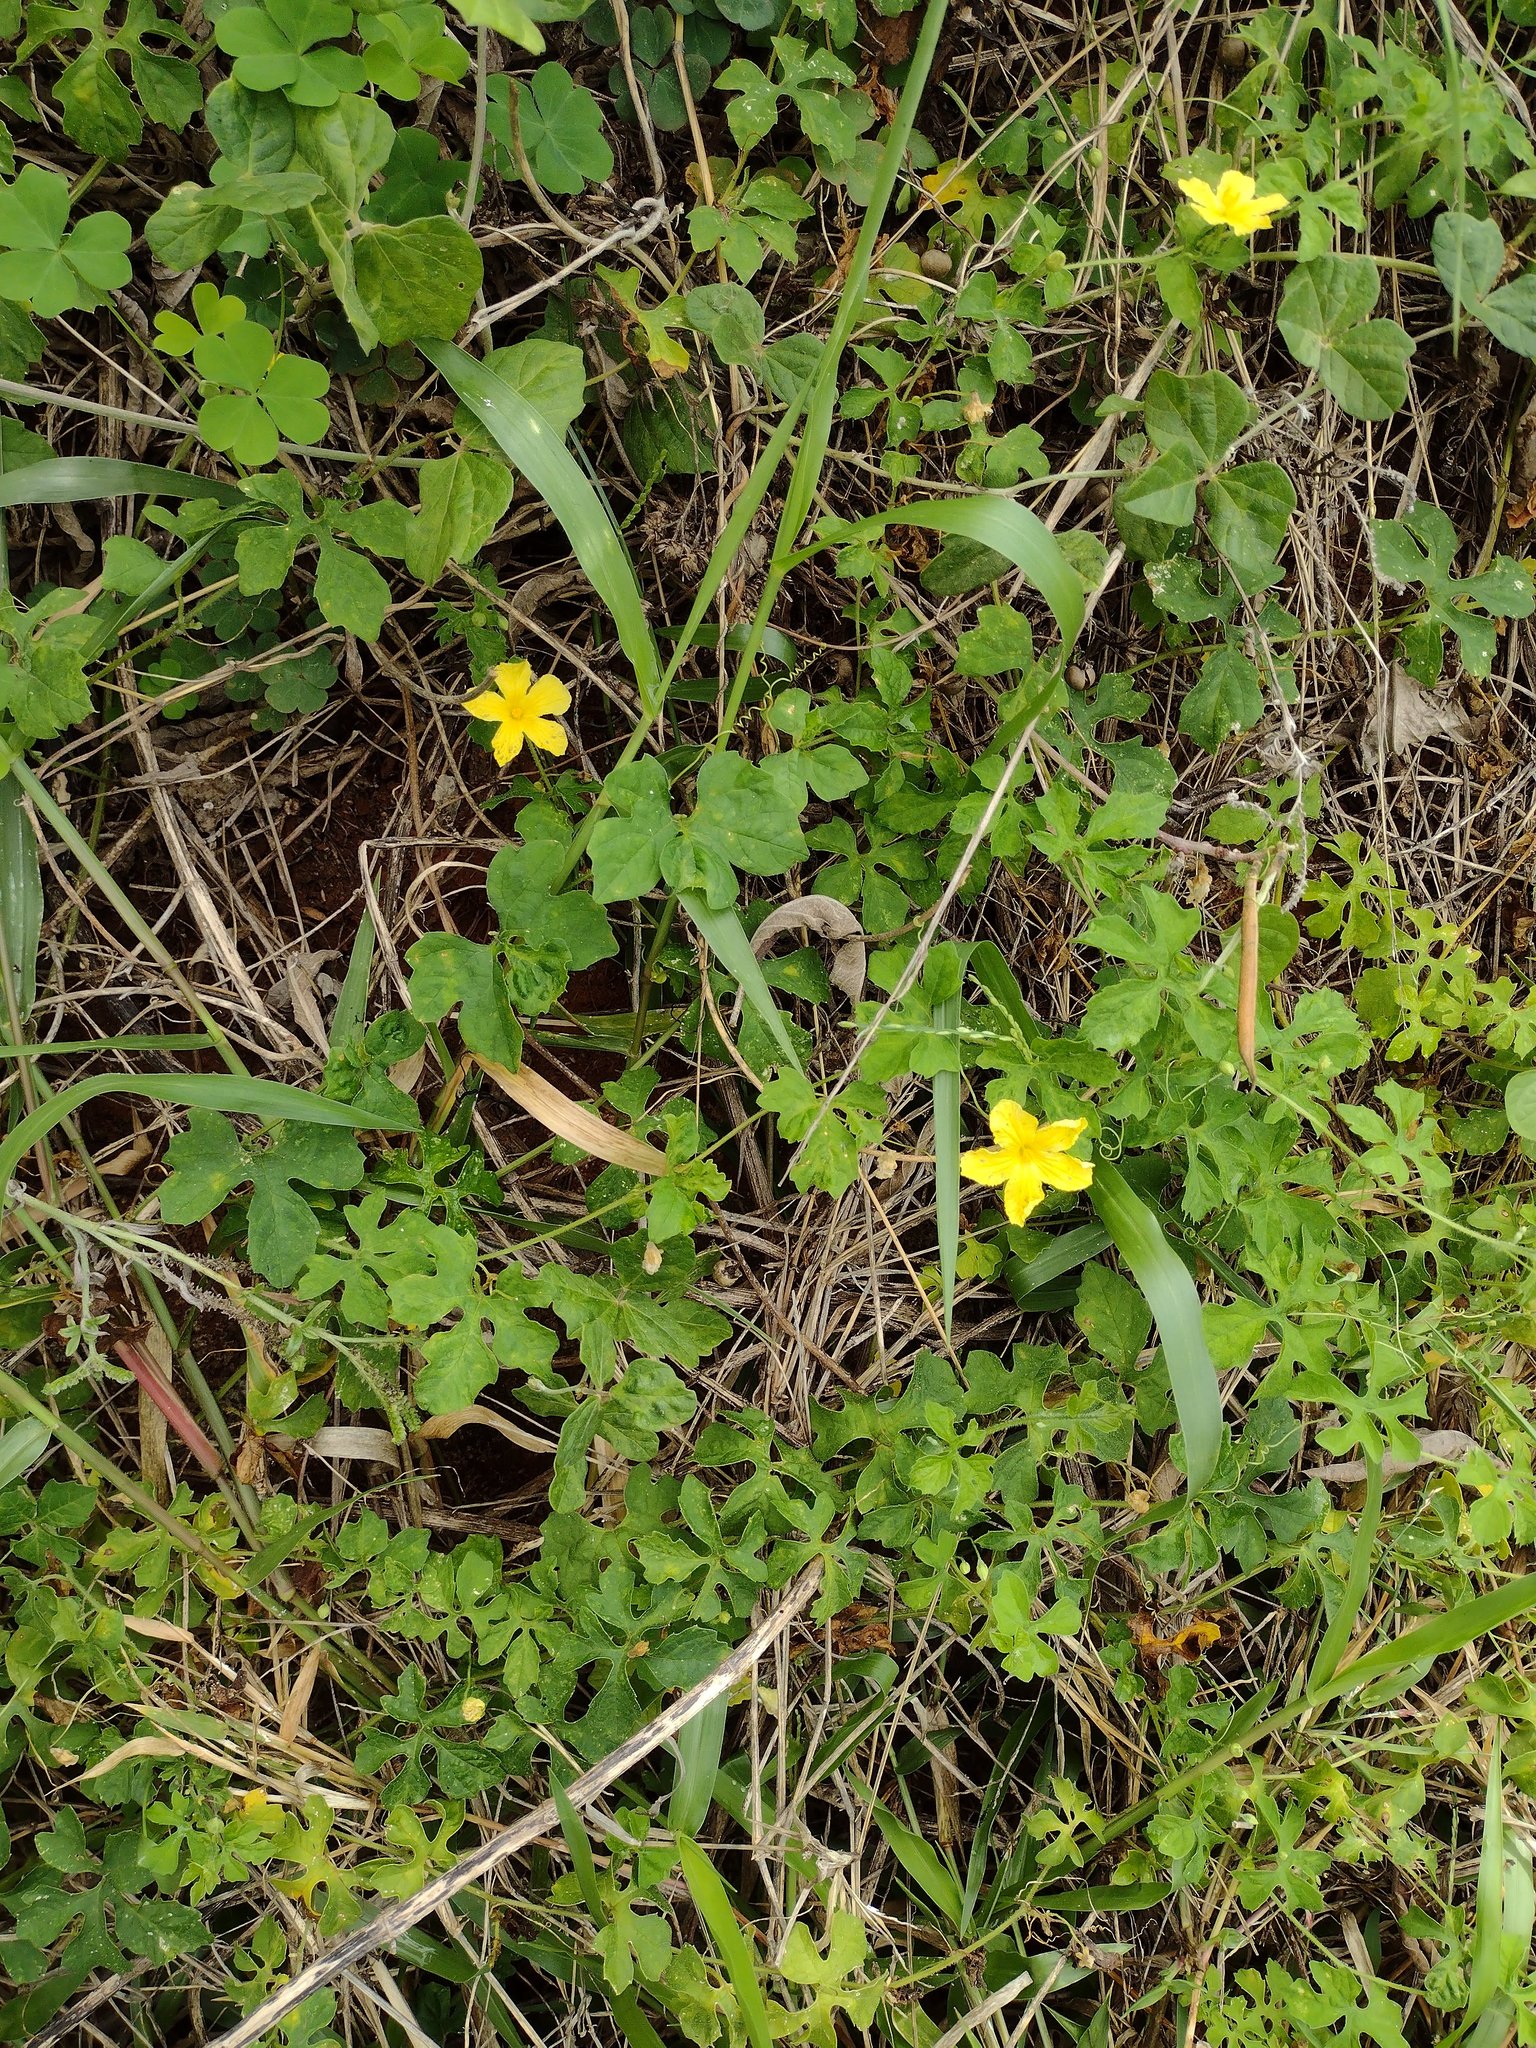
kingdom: Plantae
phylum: Tracheophyta
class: Magnoliopsida
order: Cucurbitales
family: Cucurbitaceae
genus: Momordica
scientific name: Momordica charantia
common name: Balsampear
